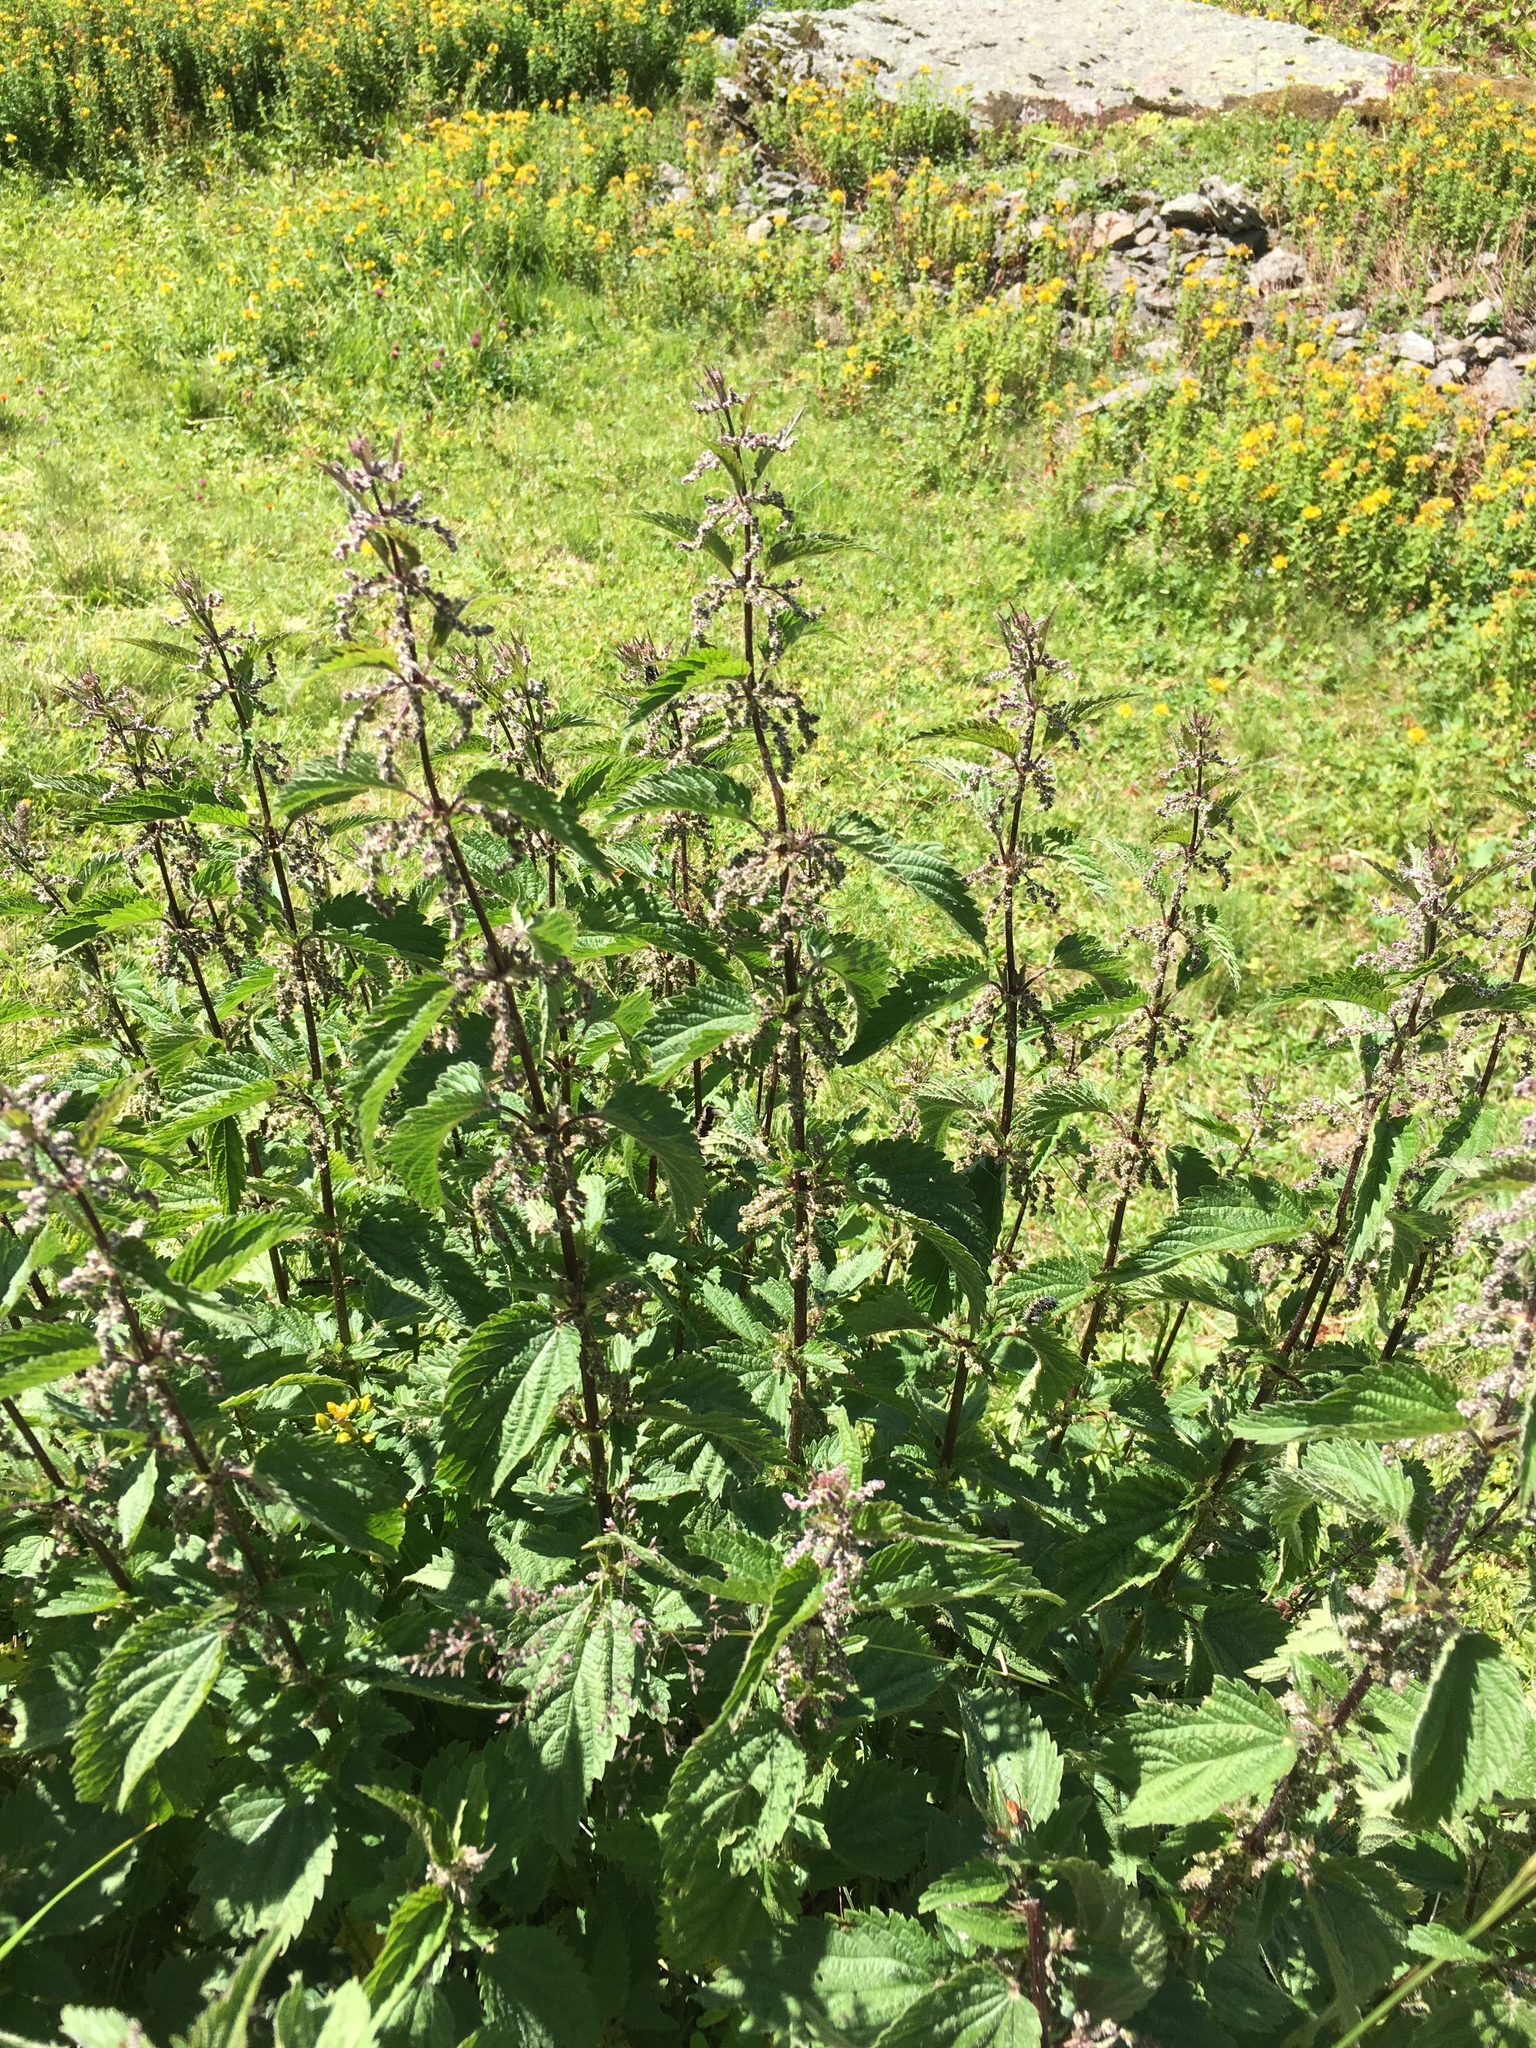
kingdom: Plantae
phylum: Tracheophyta
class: Magnoliopsida
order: Rosales
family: Urticaceae
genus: Urtica
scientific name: Urtica dioica
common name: Common nettle
